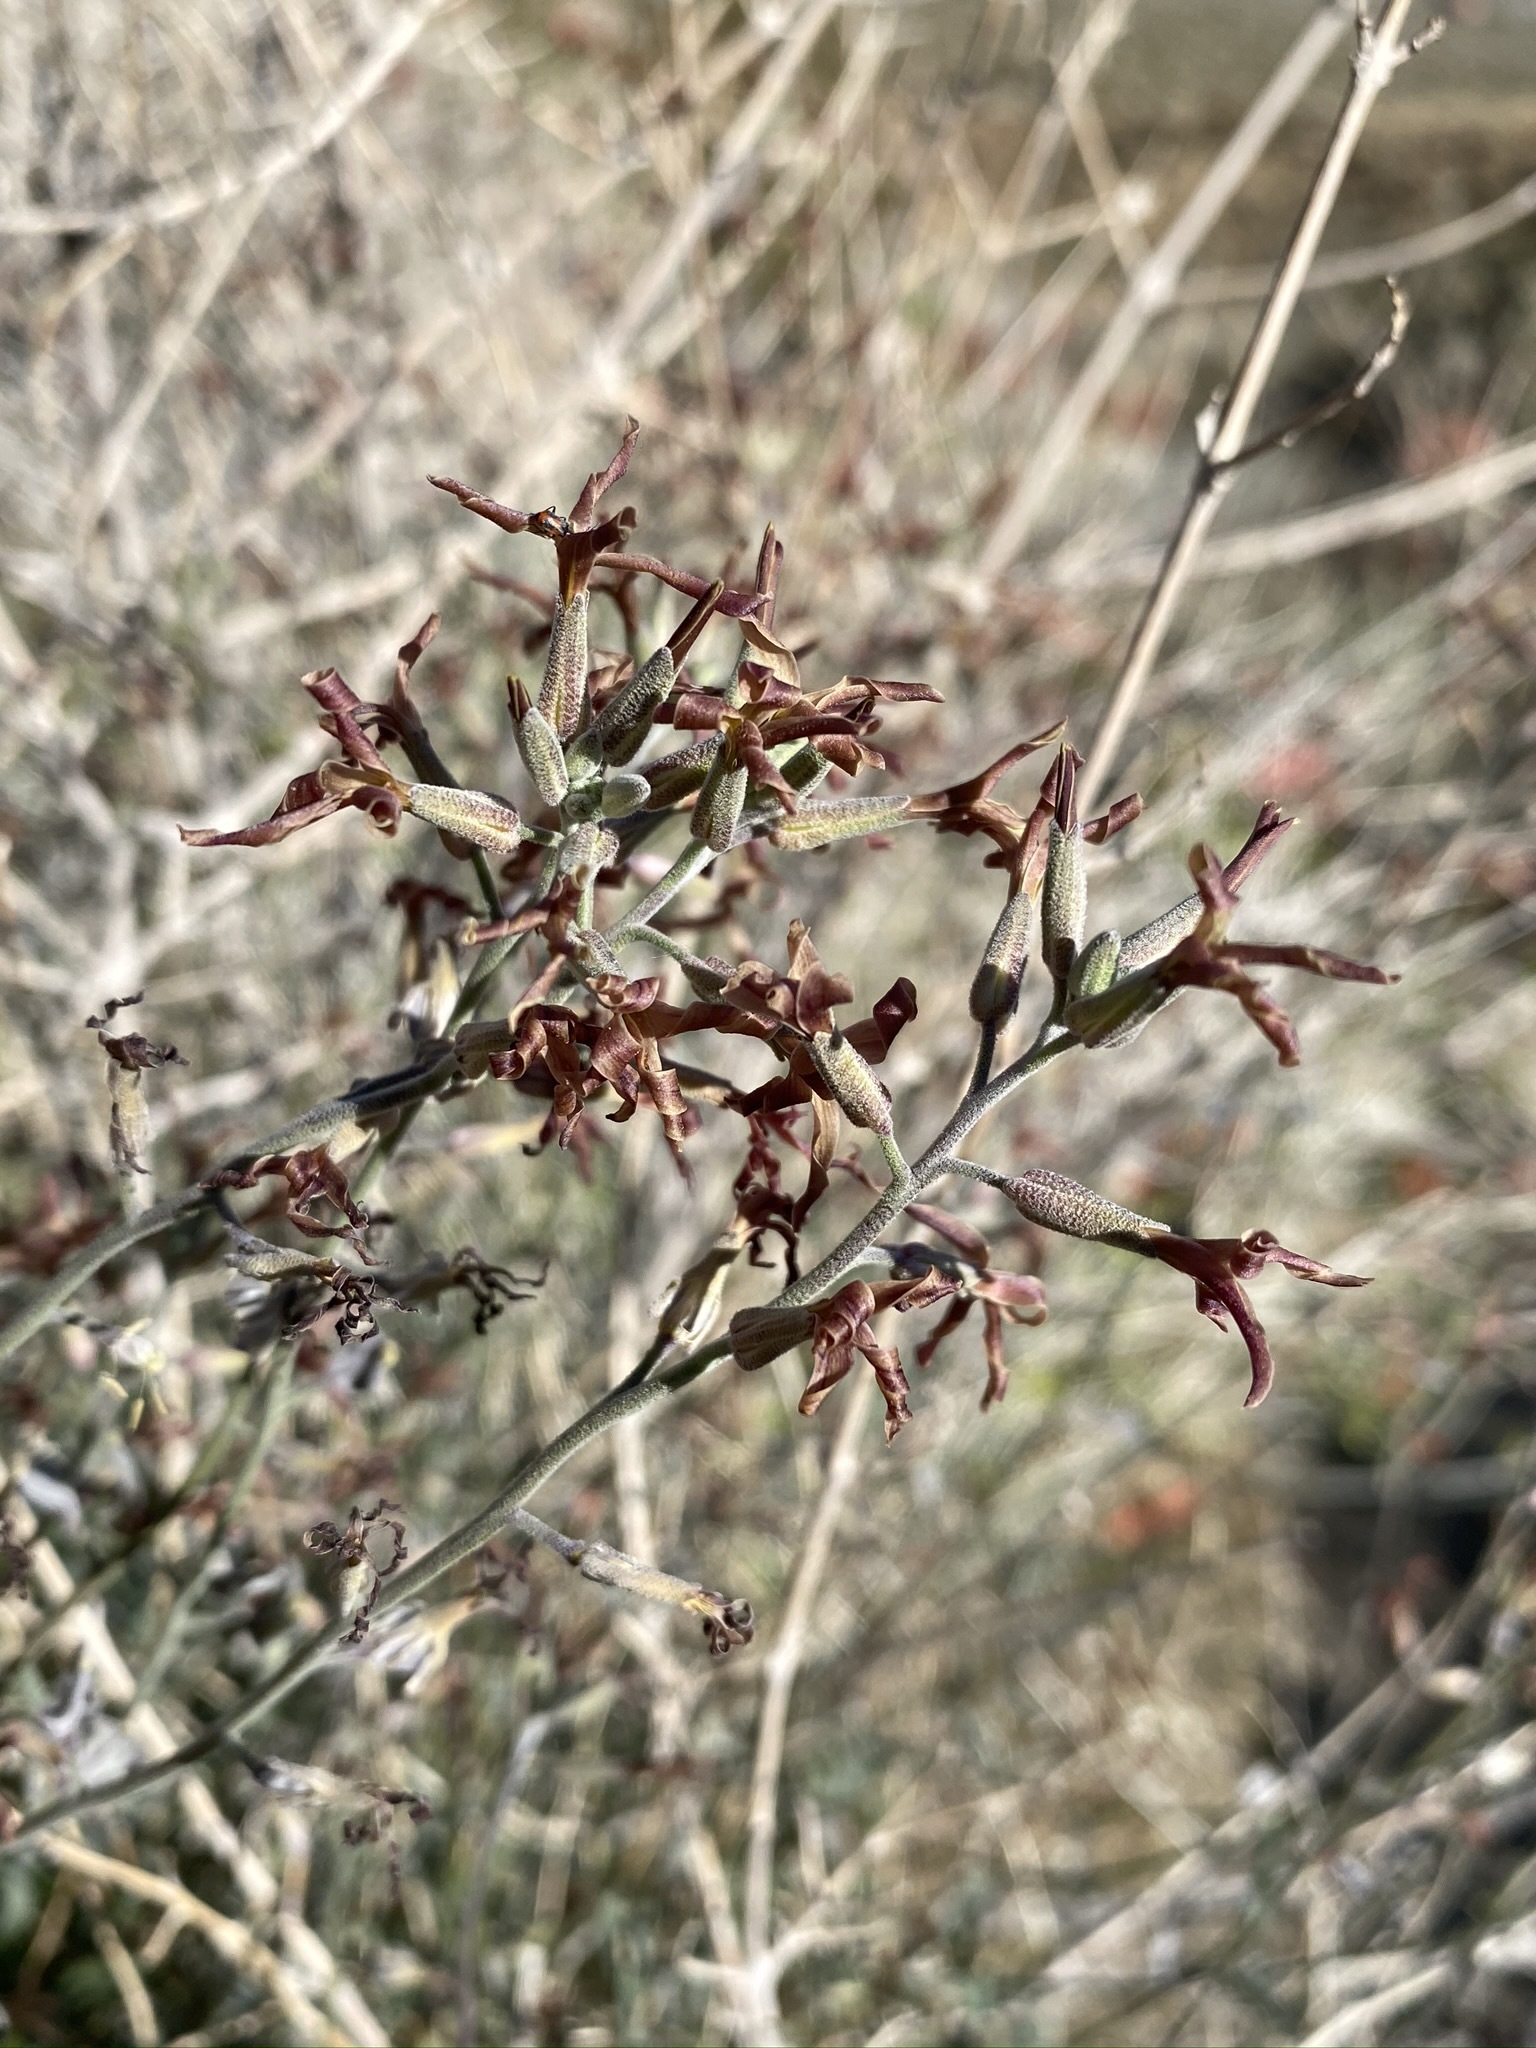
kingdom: Plantae
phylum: Tracheophyta
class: Magnoliopsida
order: Brassicales
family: Brassicaceae
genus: Lyrocarpa
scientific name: Lyrocarpa coulteri
